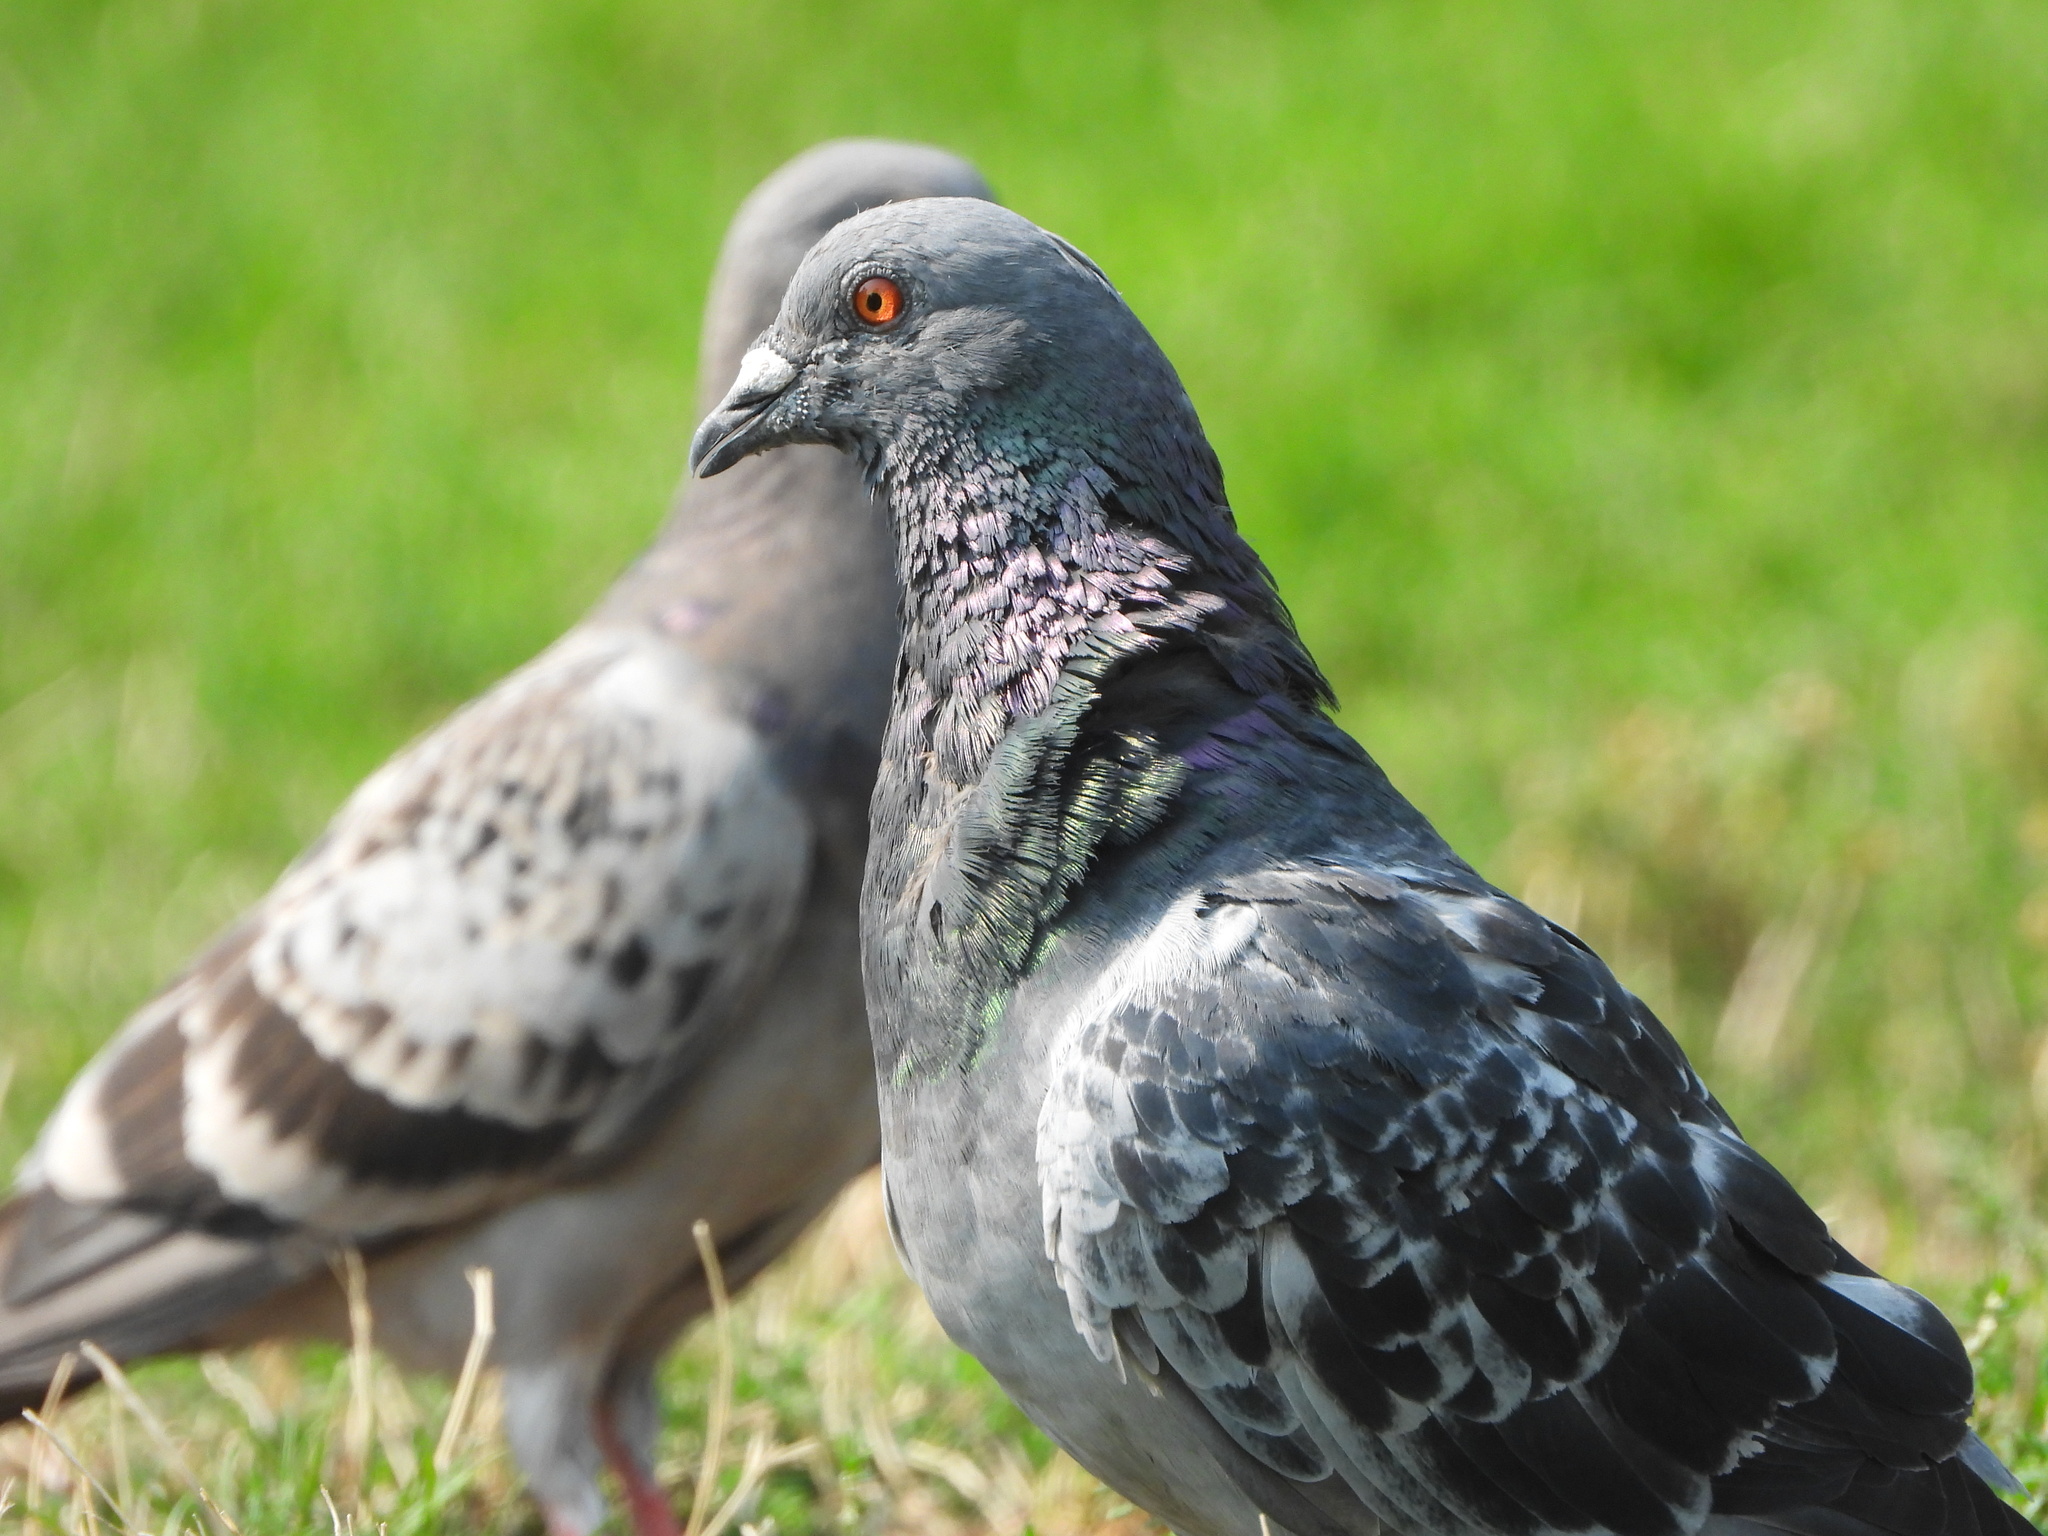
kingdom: Animalia
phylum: Chordata
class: Aves
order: Columbiformes
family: Columbidae
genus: Columba
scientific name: Columba livia
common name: Rock pigeon
